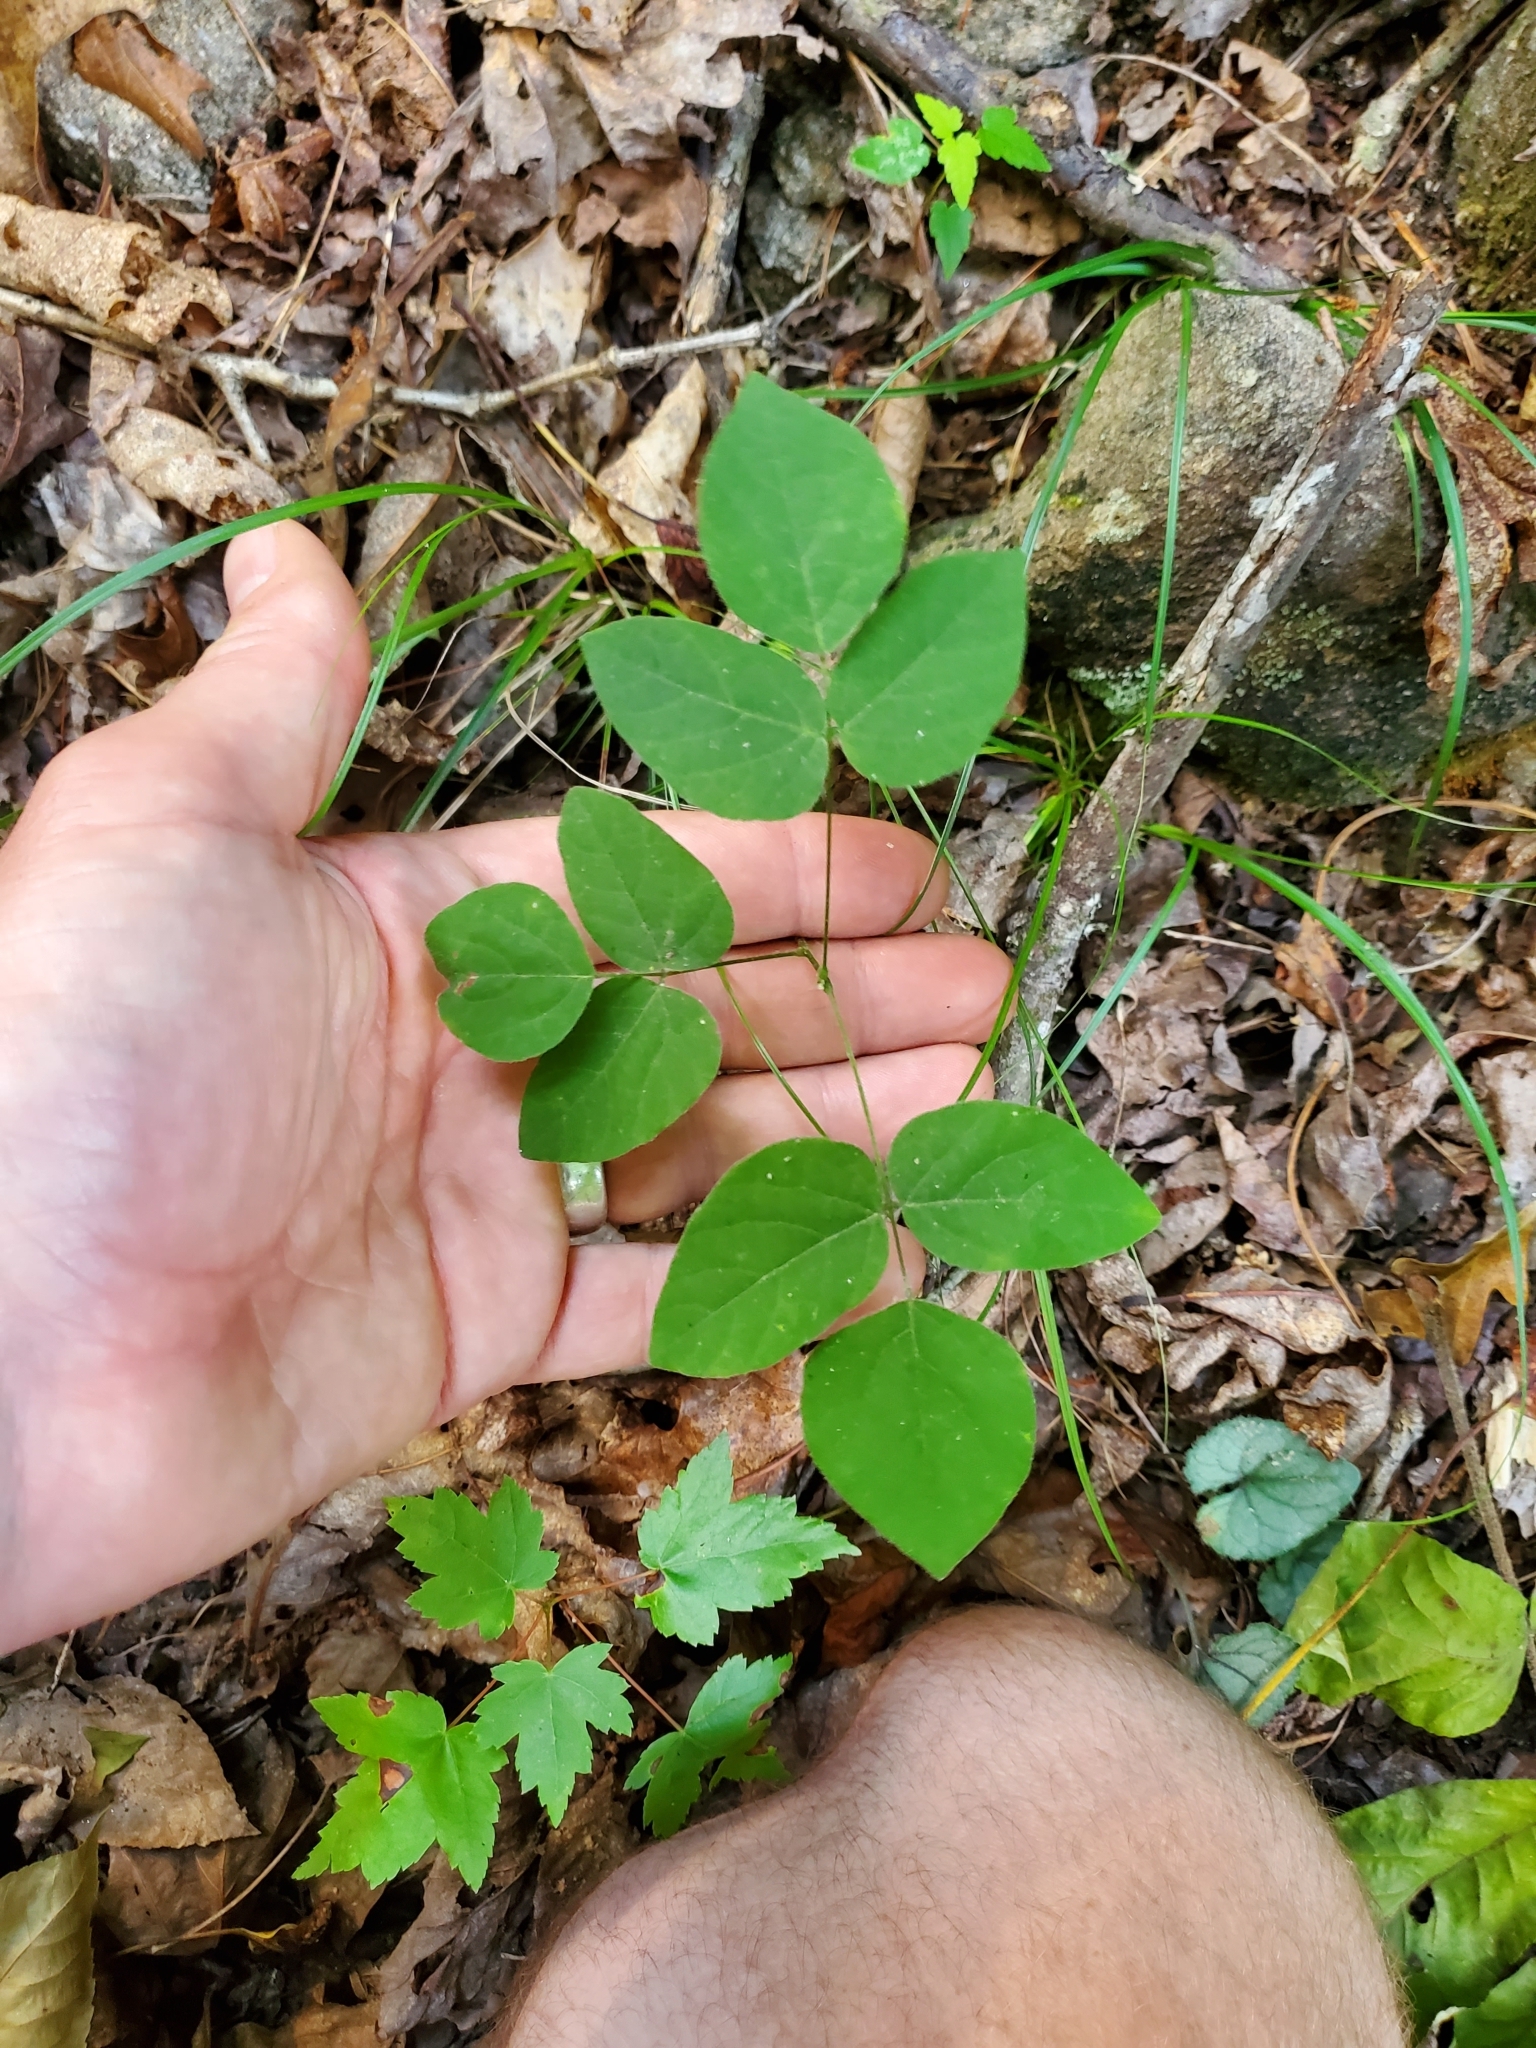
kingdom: Plantae
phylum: Tracheophyta
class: Magnoliopsida
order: Fabales
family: Fabaceae
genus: Amphicarpaea
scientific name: Amphicarpaea bracteata
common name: American hog peanut
